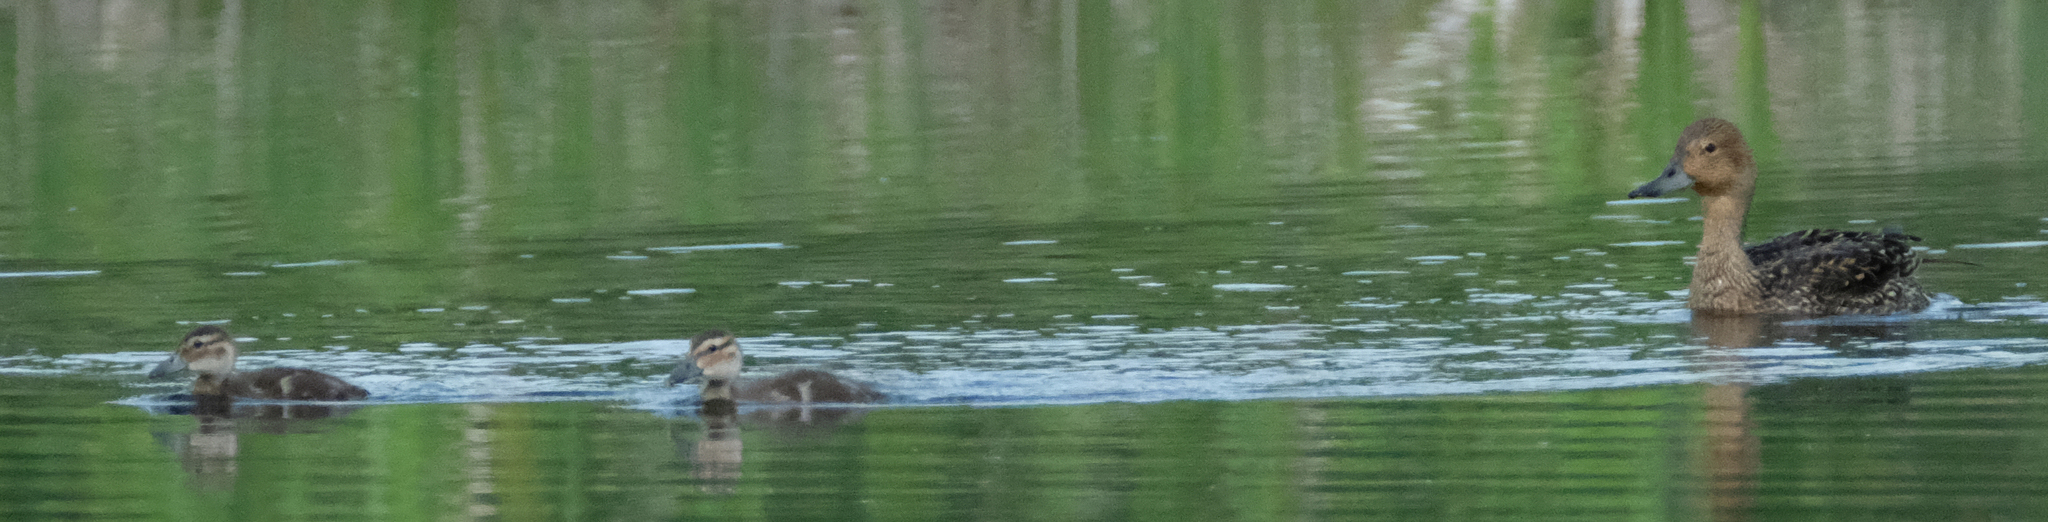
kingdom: Animalia
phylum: Chordata
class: Aves
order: Anseriformes
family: Anatidae
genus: Anas
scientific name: Anas acuta
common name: Northern pintail
